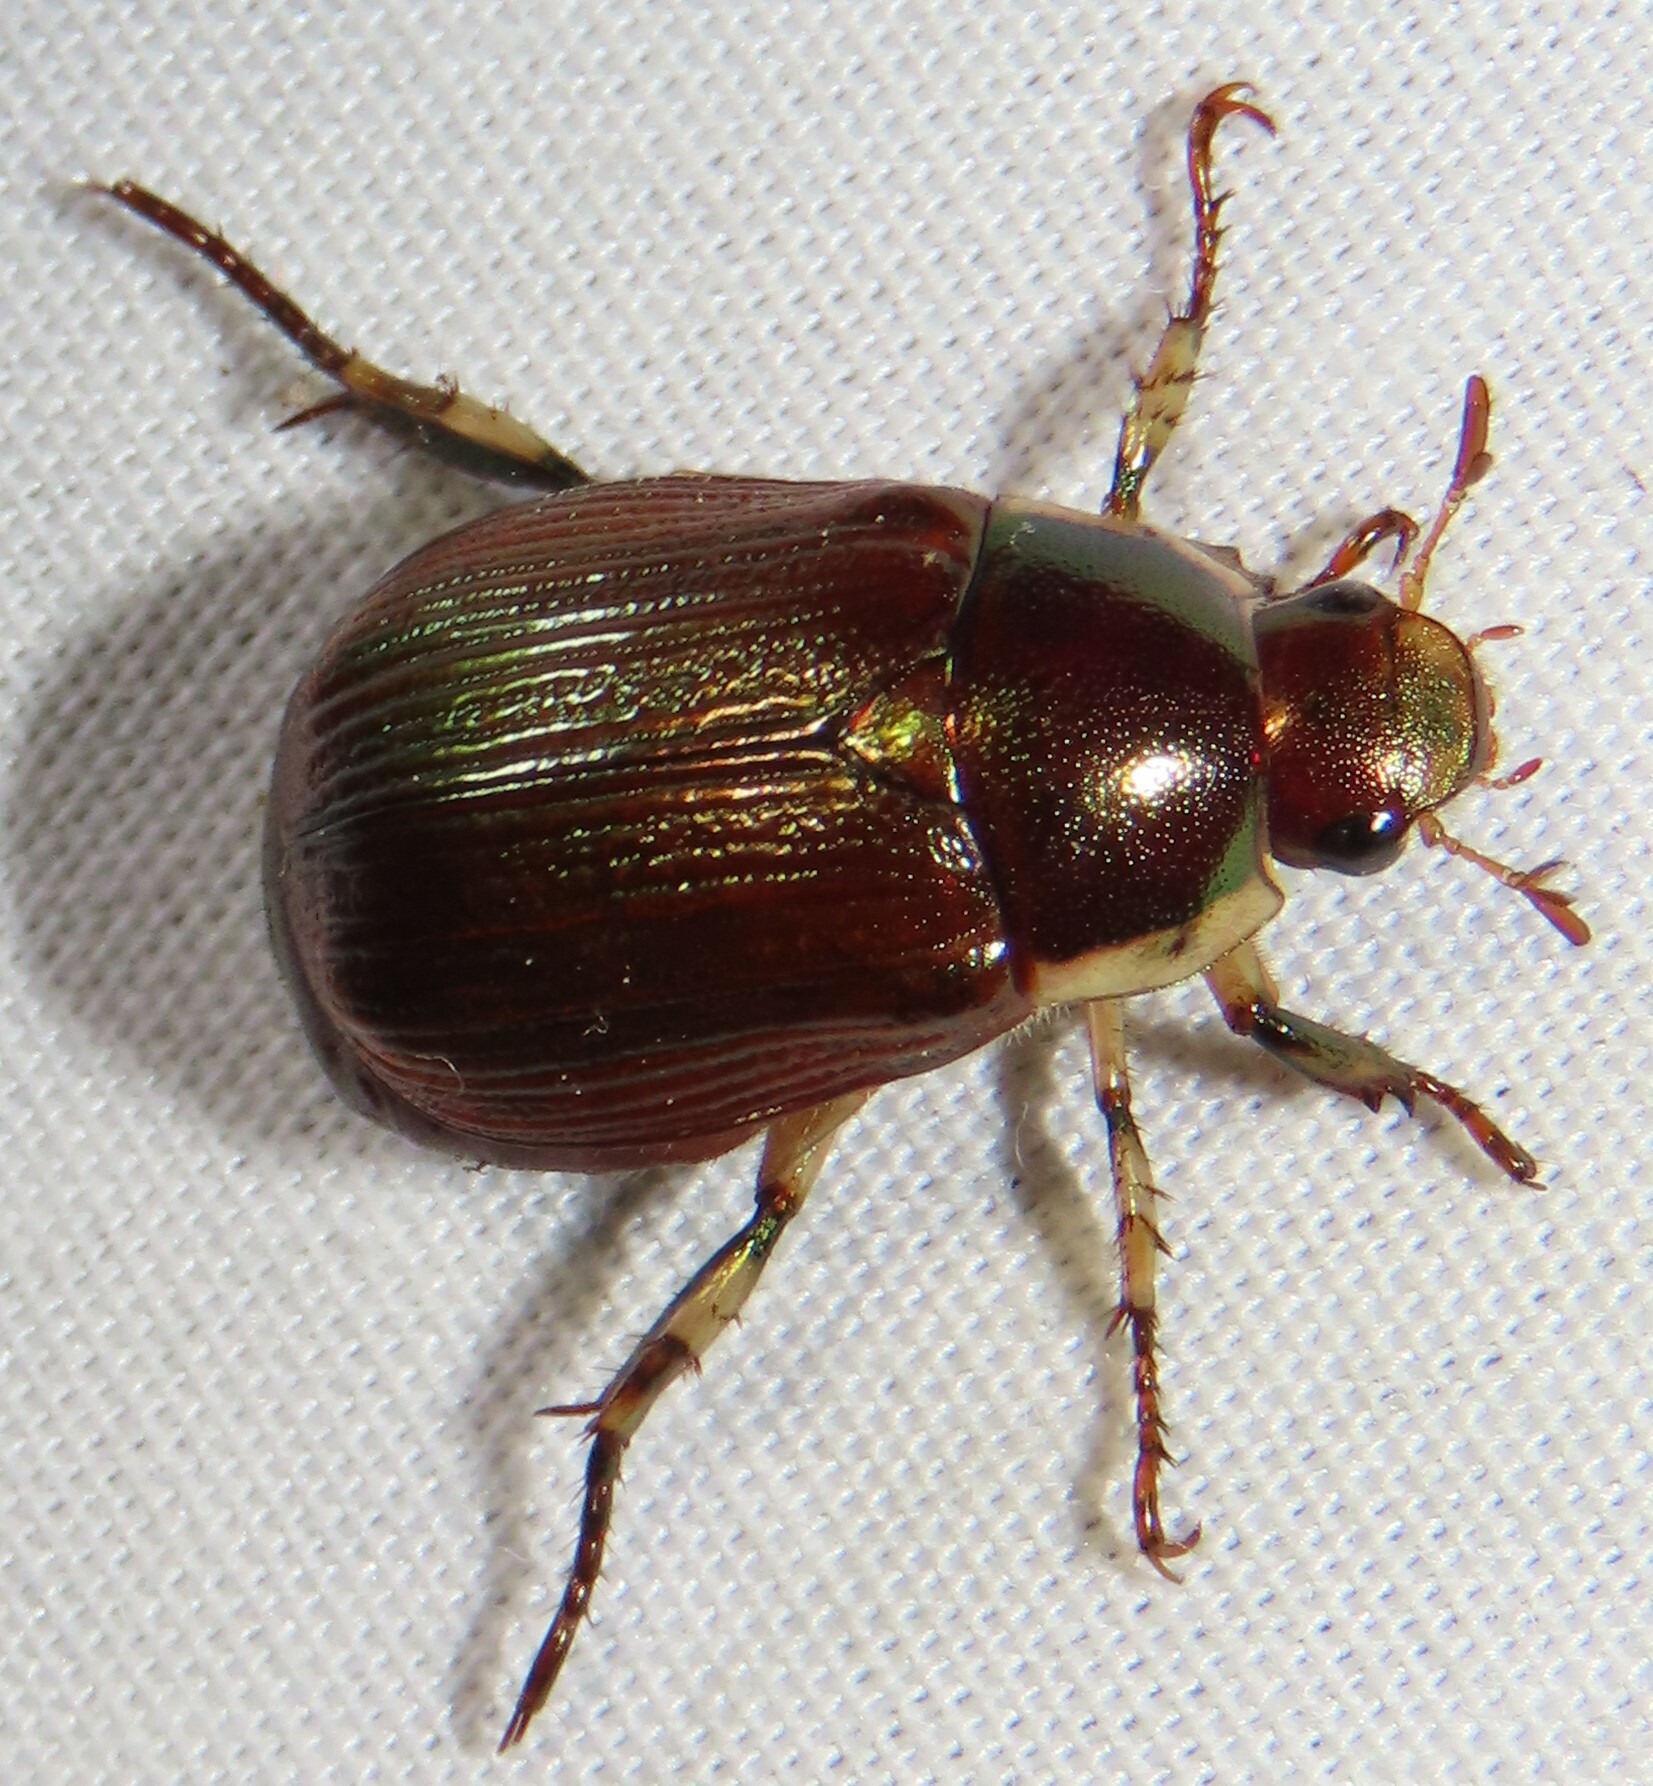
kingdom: Animalia
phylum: Arthropoda
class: Insecta
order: Coleoptera
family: Scarabaeidae
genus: Callistethus
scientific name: Callistethus marginatus
